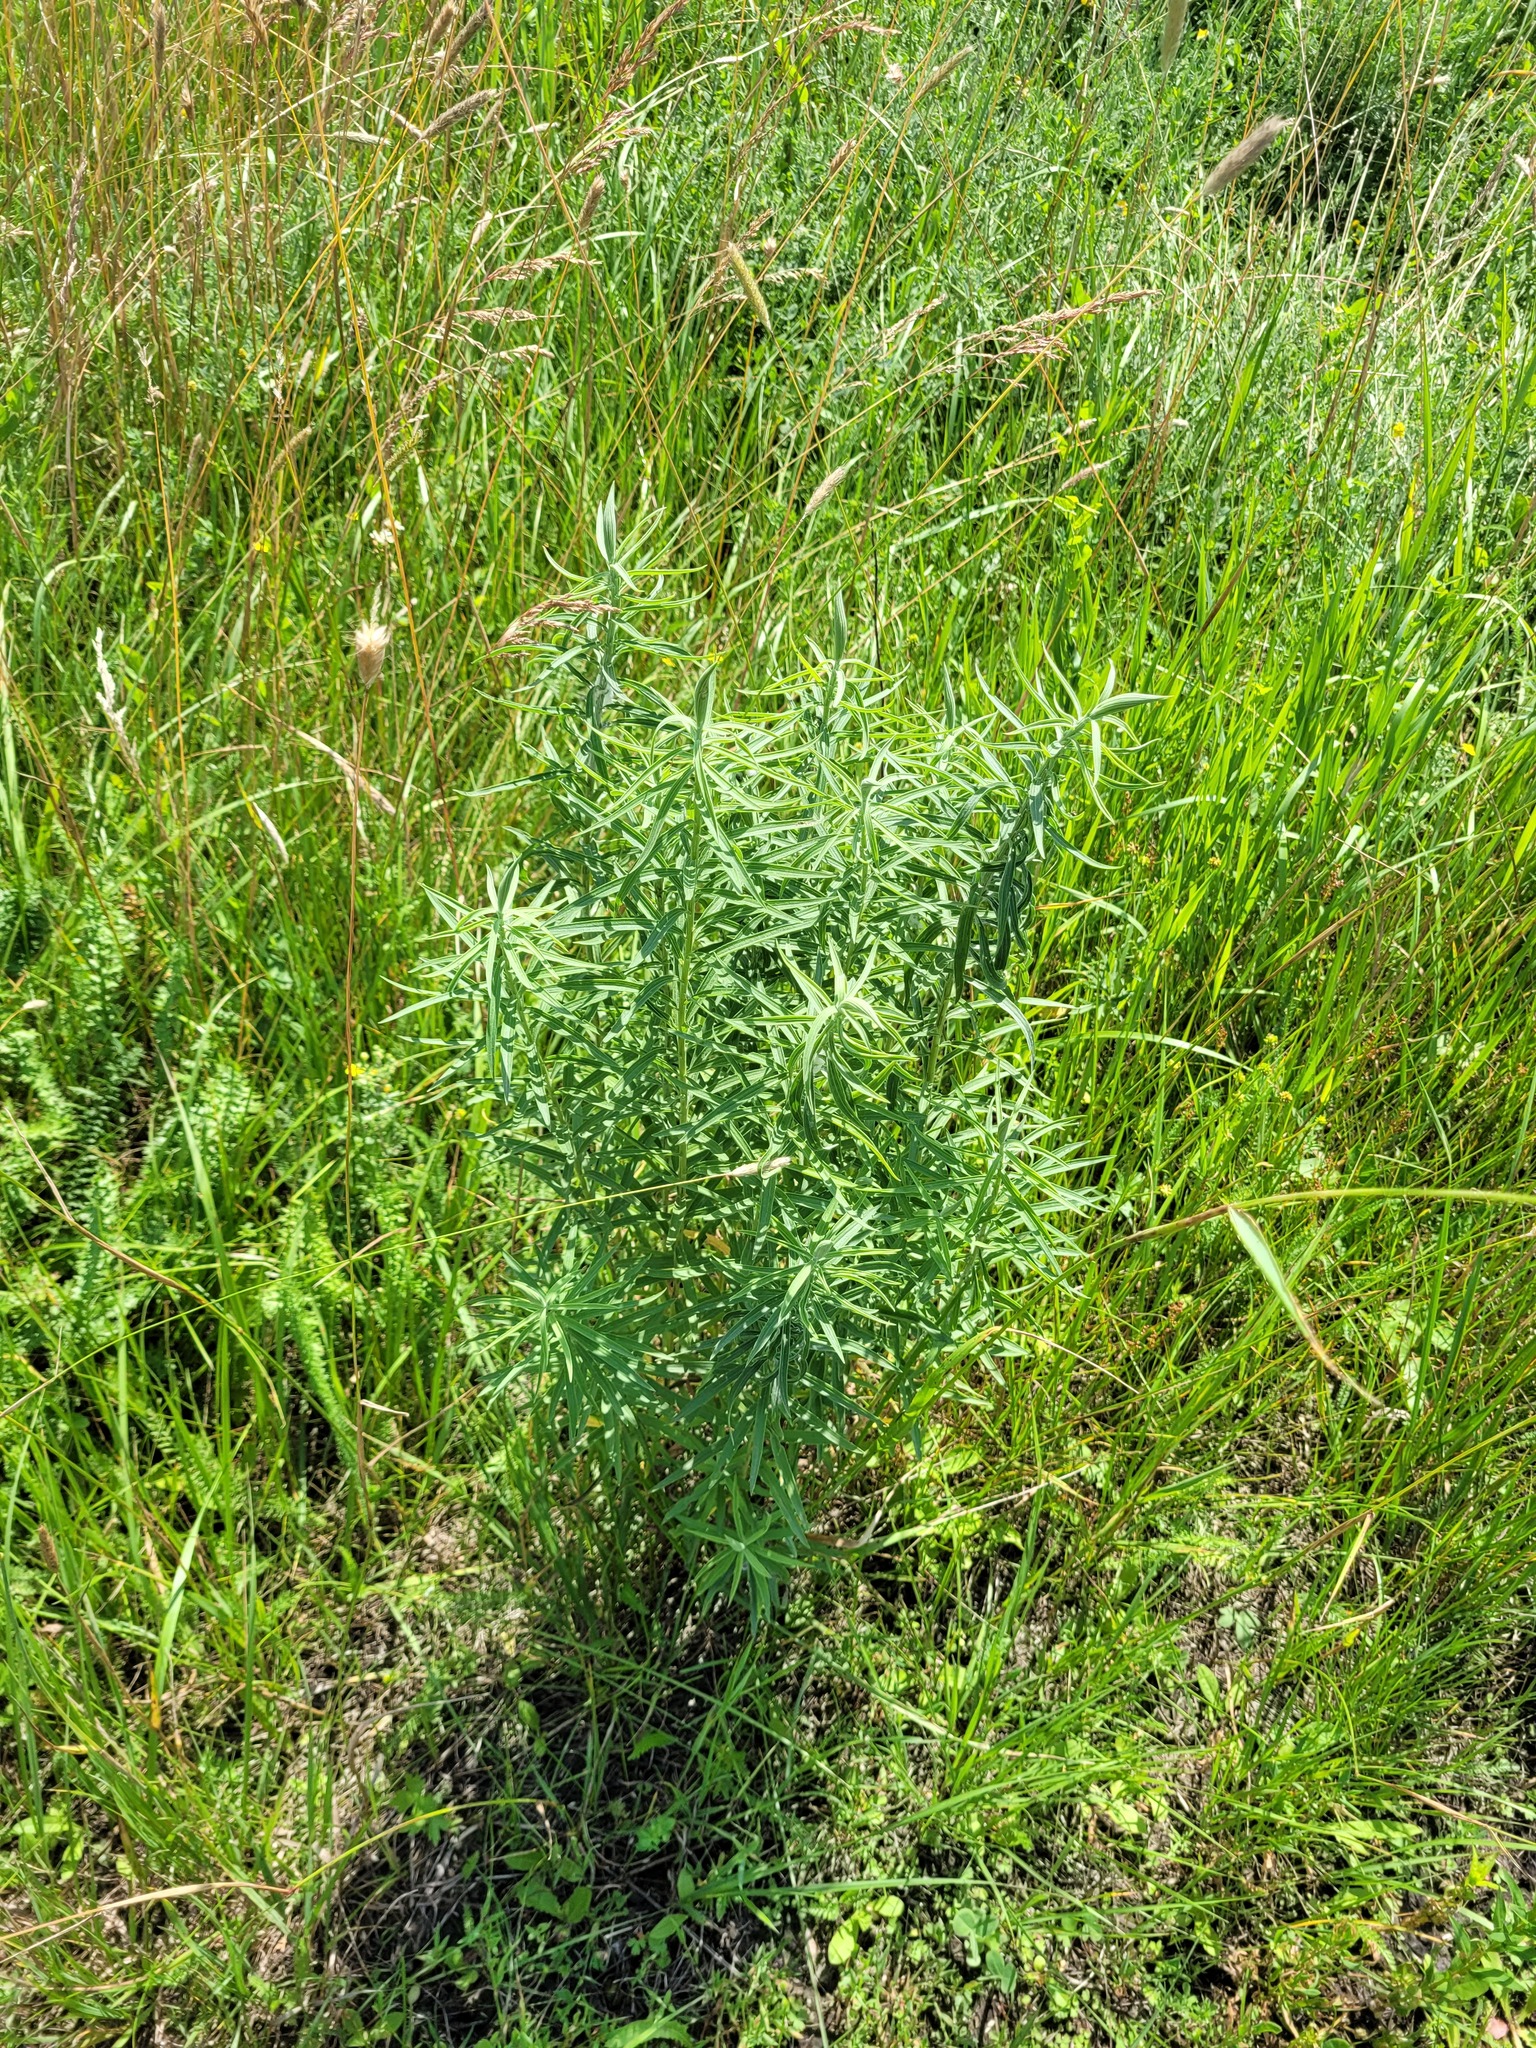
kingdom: Plantae
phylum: Tracheophyta
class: Magnoliopsida
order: Asterales
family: Asteraceae
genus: Galatella
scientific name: Galatella sedifolia
